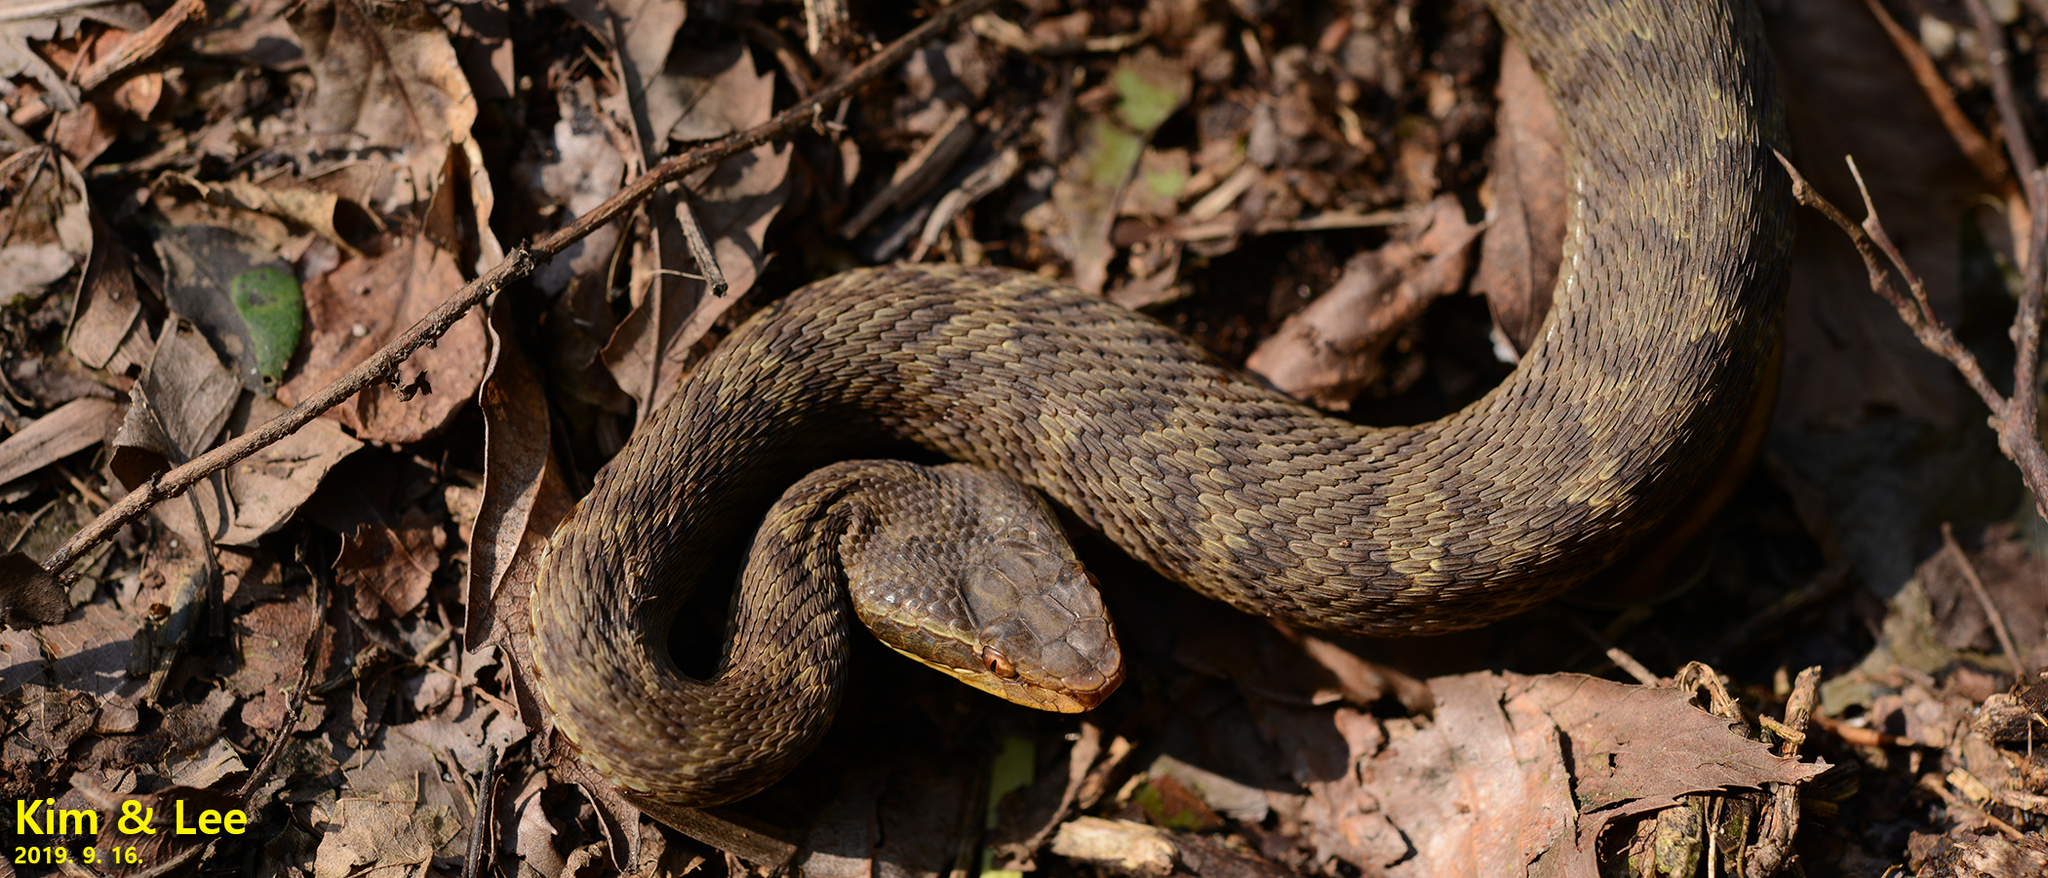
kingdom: Animalia
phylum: Chordata
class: Squamata
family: Viperidae
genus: Gloydius
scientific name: Gloydius ussuriensis
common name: Ussuri mamushi
